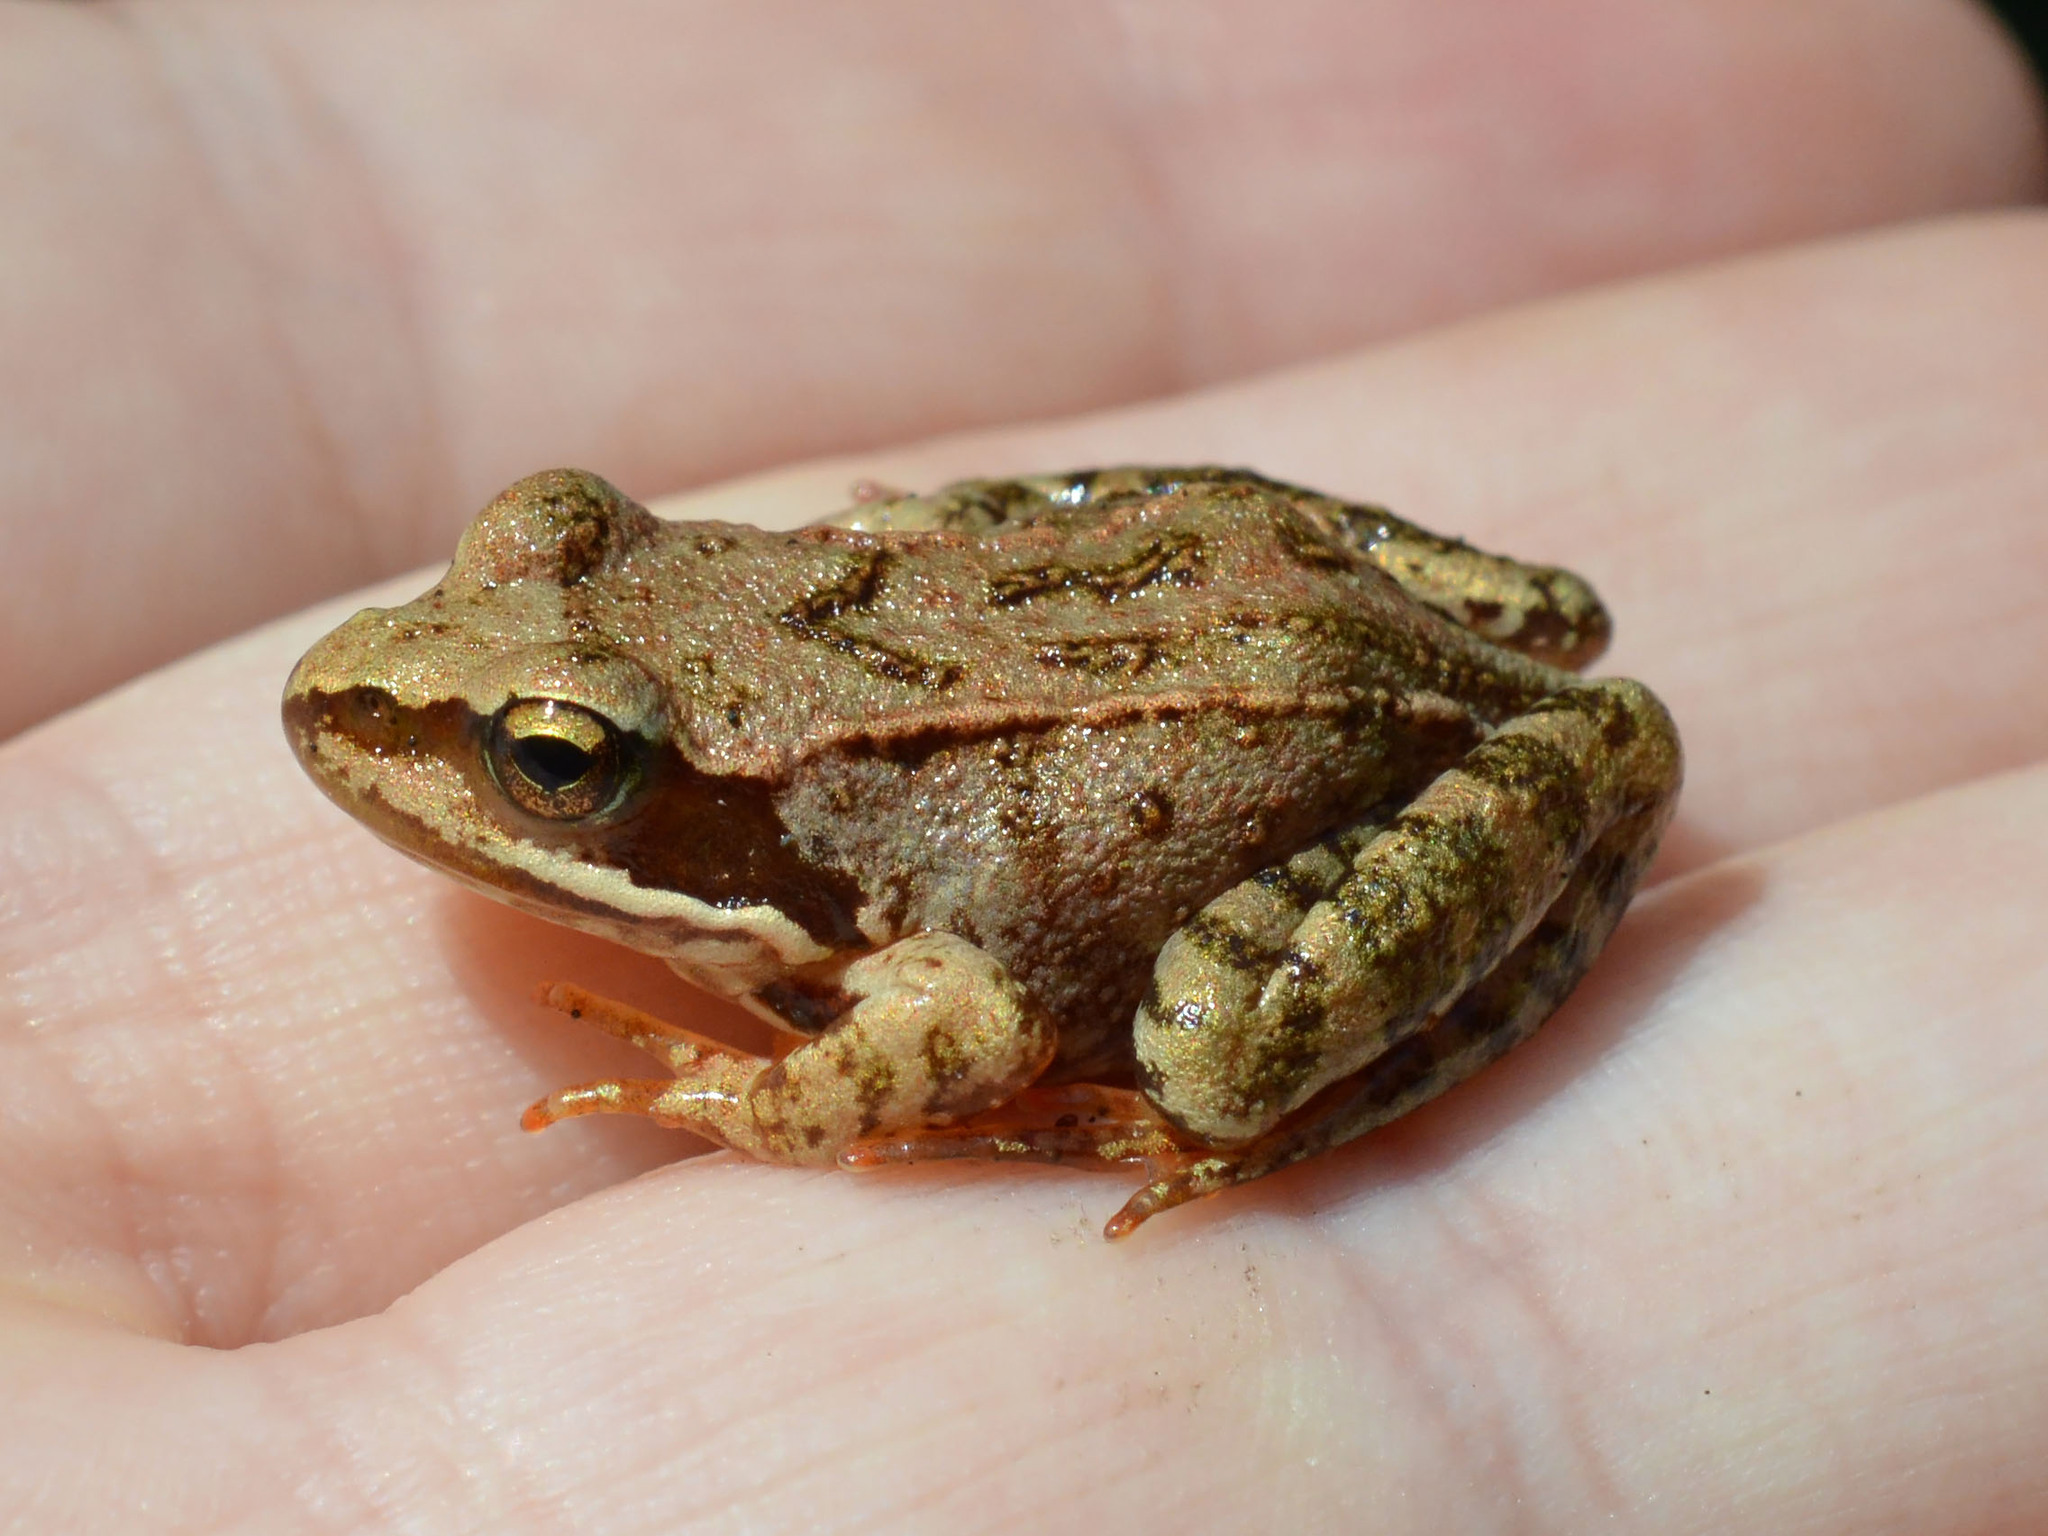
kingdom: Animalia
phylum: Chordata
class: Amphibia
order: Anura
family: Ranidae
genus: Rana
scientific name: Rana temporaria
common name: Common frog
